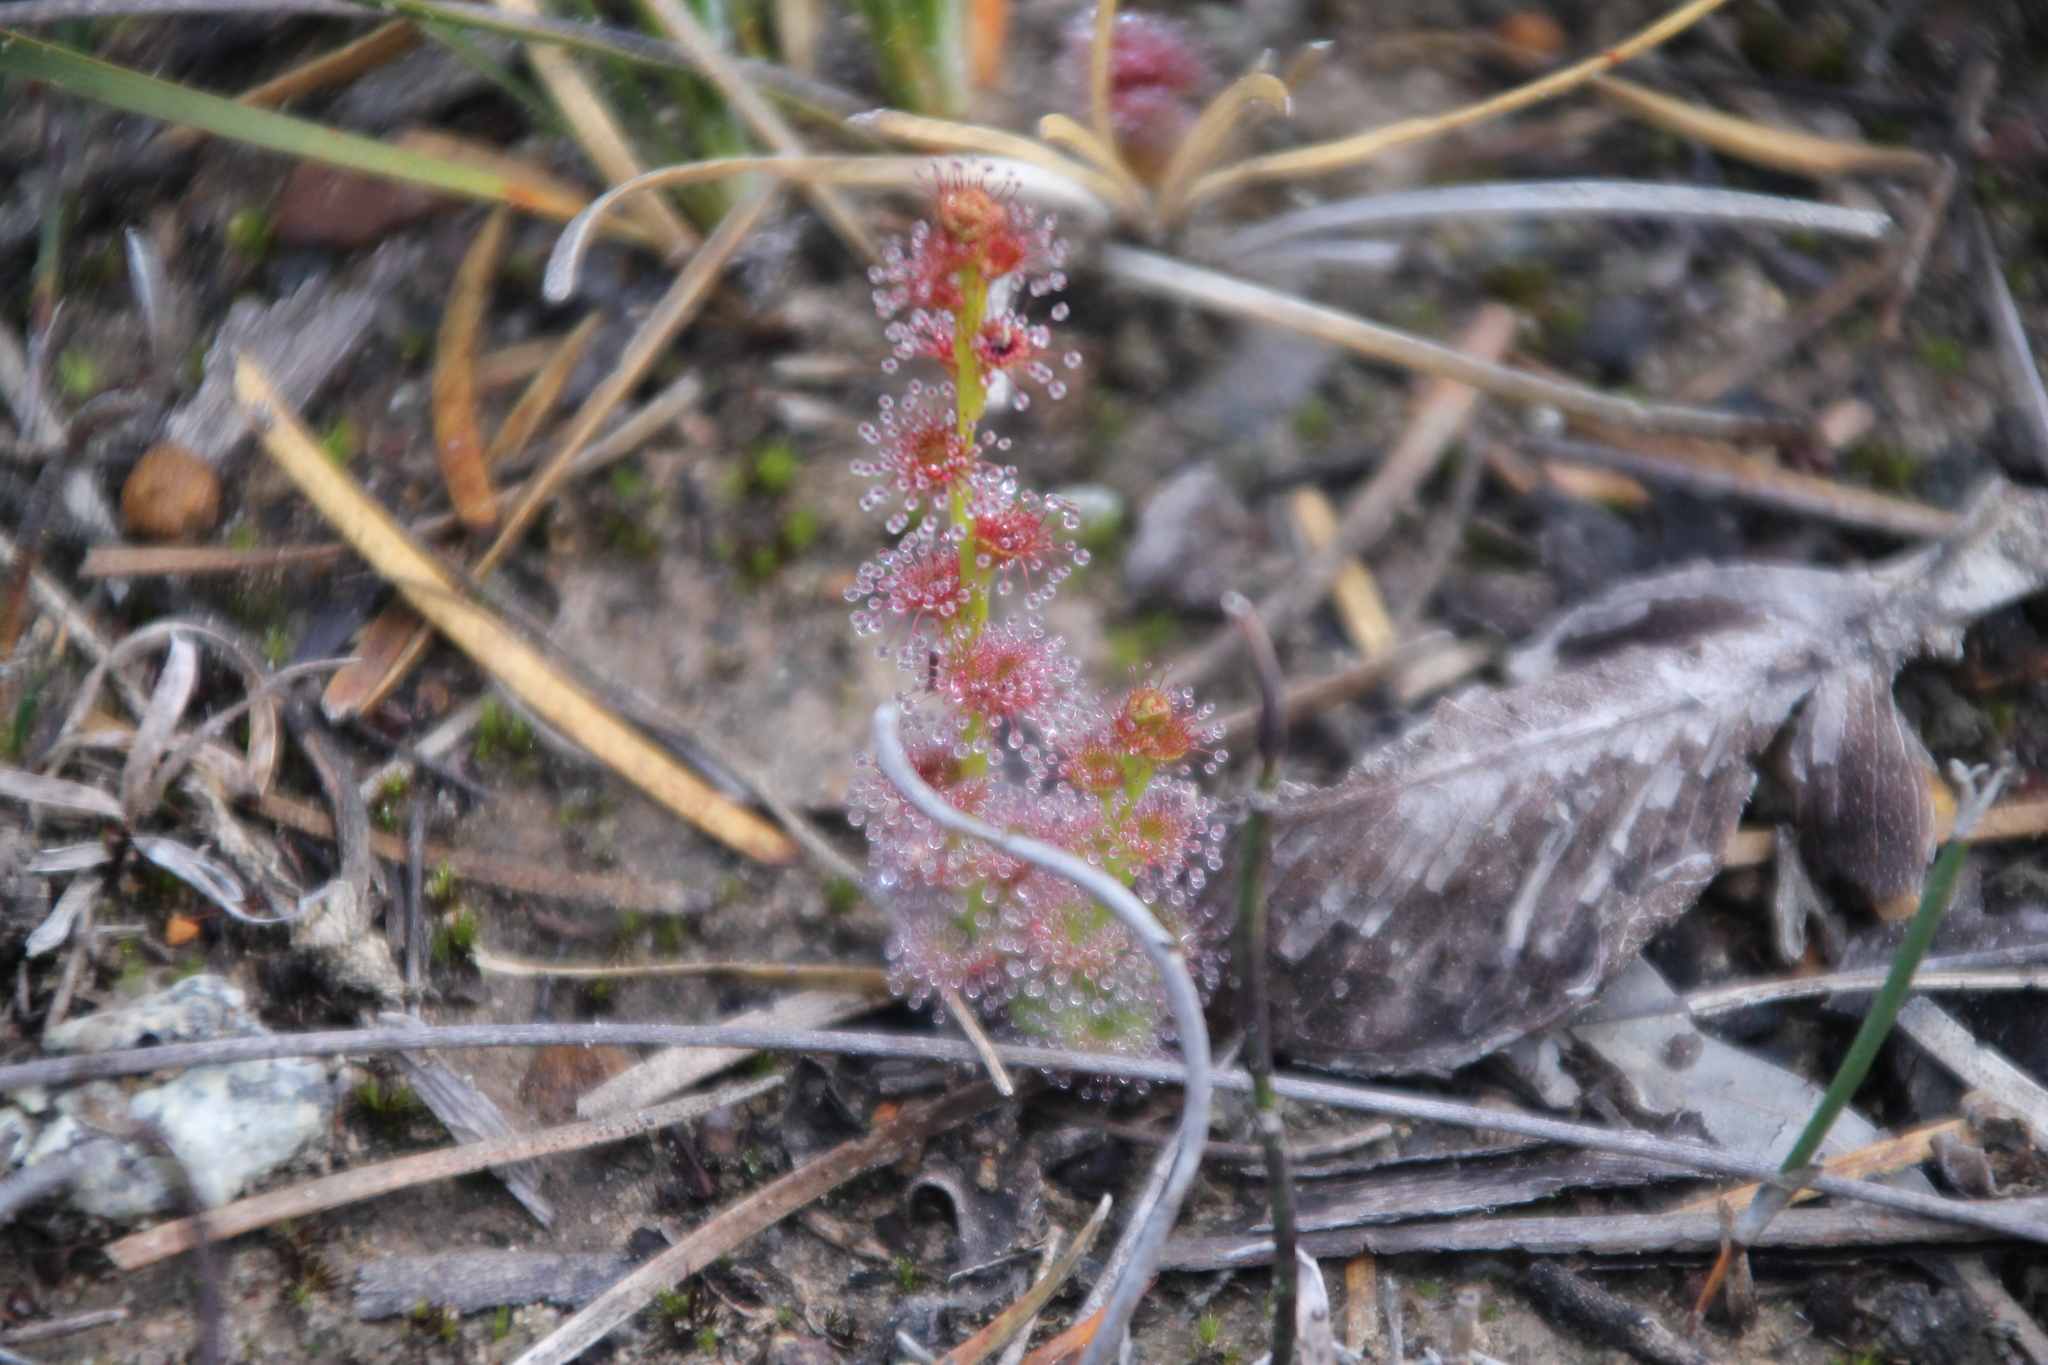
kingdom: Plantae
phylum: Tracheophyta
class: Magnoliopsida
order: Caryophyllales
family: Droseraceae
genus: Drosera
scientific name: Drosera platypoda
